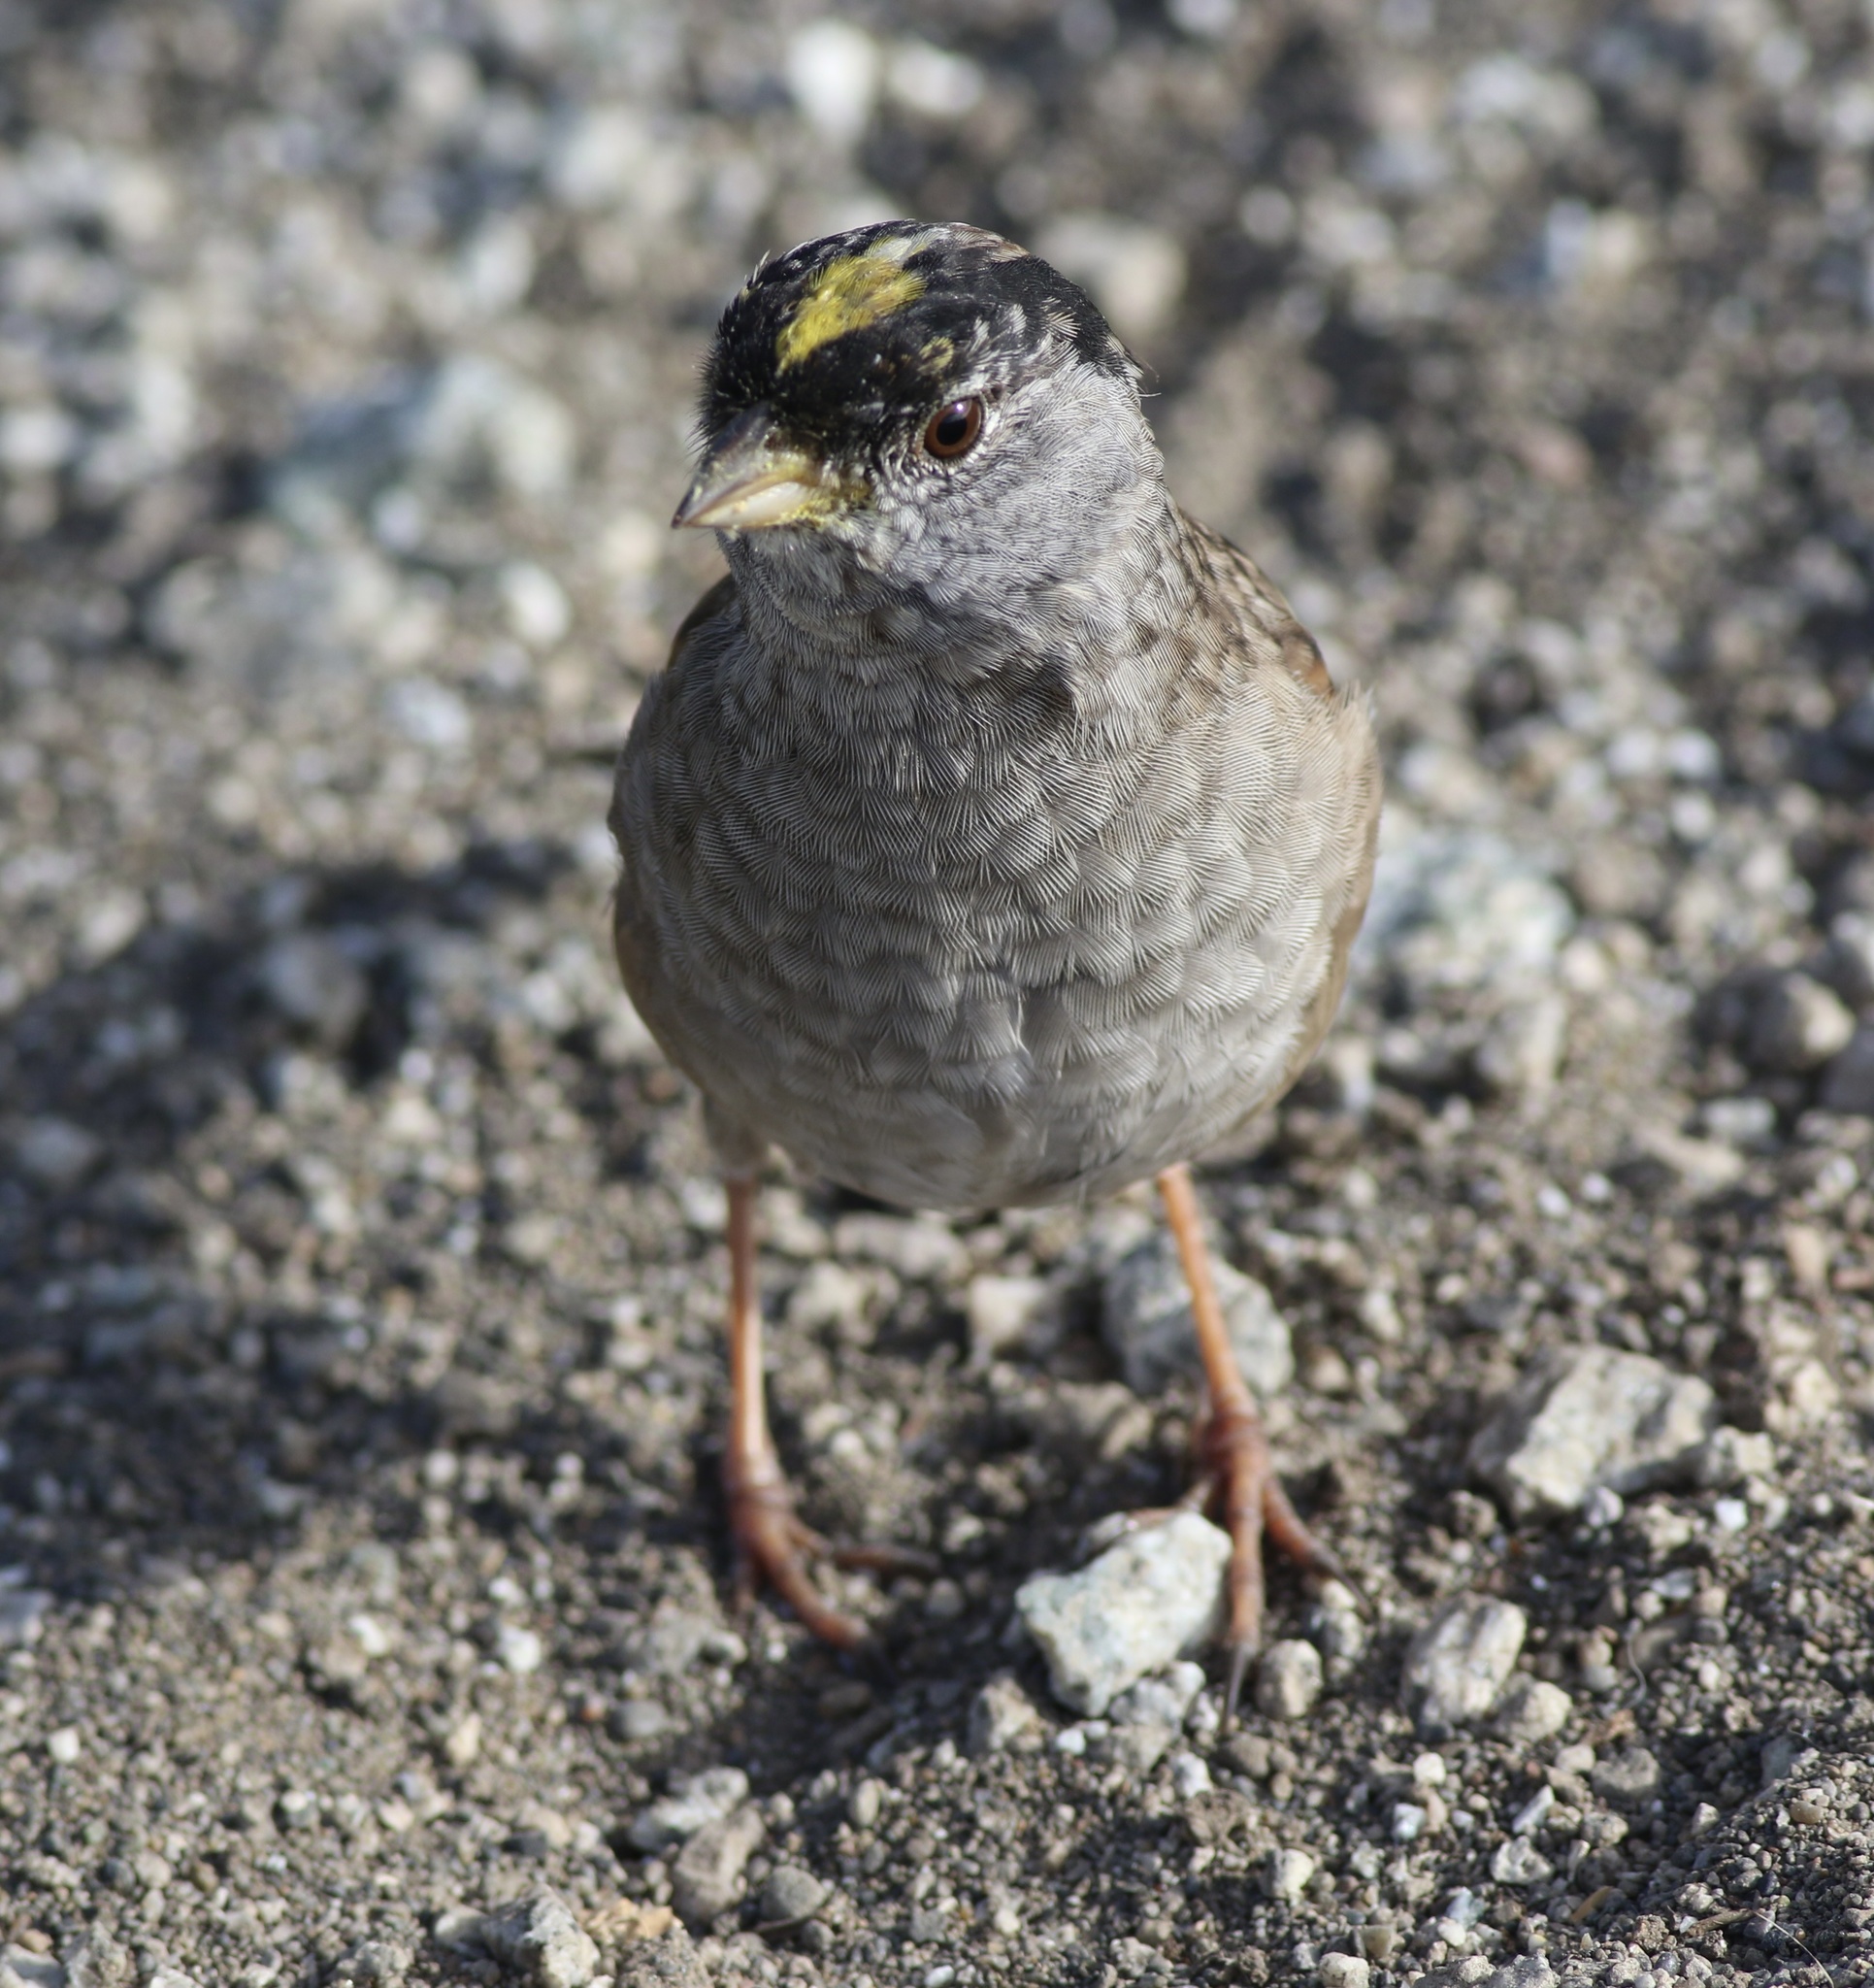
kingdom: Animalia
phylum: Chordata
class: Aves
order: Passeriformes
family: Passerellidae
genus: Zonotrichia
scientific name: Zonotrichia atricapilla
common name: Golden-crowned sparrow
